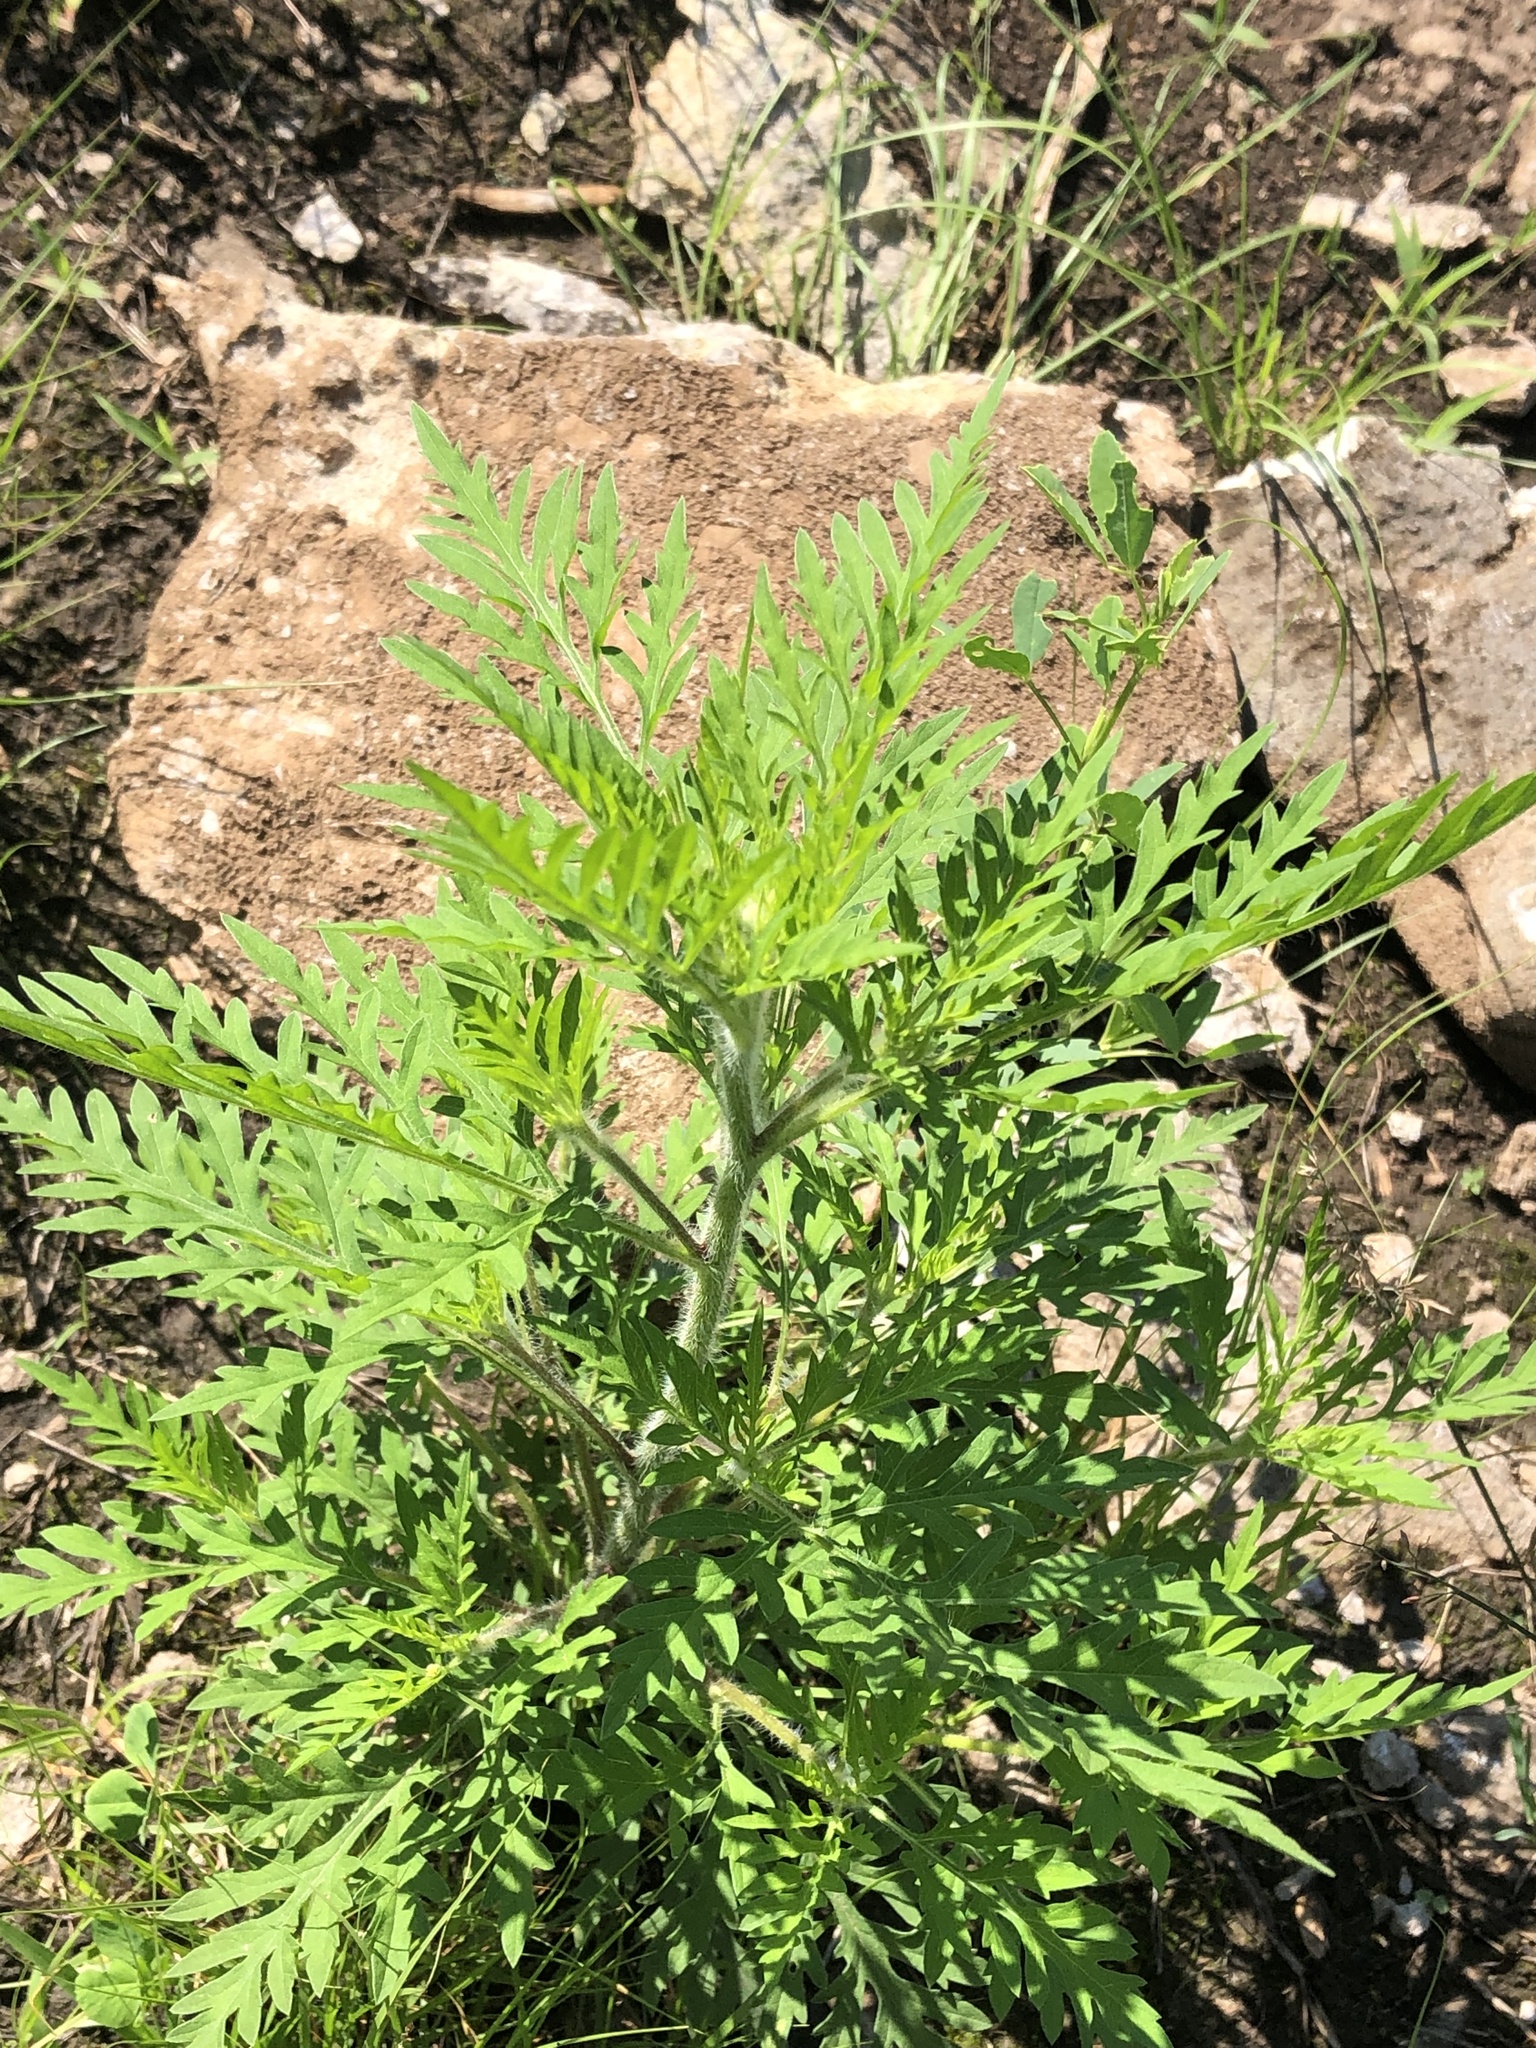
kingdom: Plantae
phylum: Tracheophyta
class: Magnoliopsida
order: Asterales
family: Asteraceae
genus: Ambrosia
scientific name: Ambrosia artemisiifolia
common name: Annual ragweed
